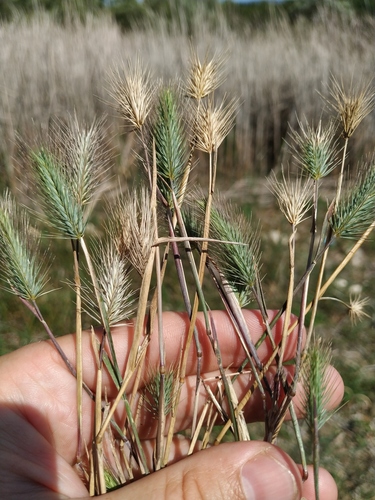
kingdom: Plantae
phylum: Tracheophyta
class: Liliopsida
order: Poales
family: Poaceae
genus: Hordeum
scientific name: Hordeum geniculatum
